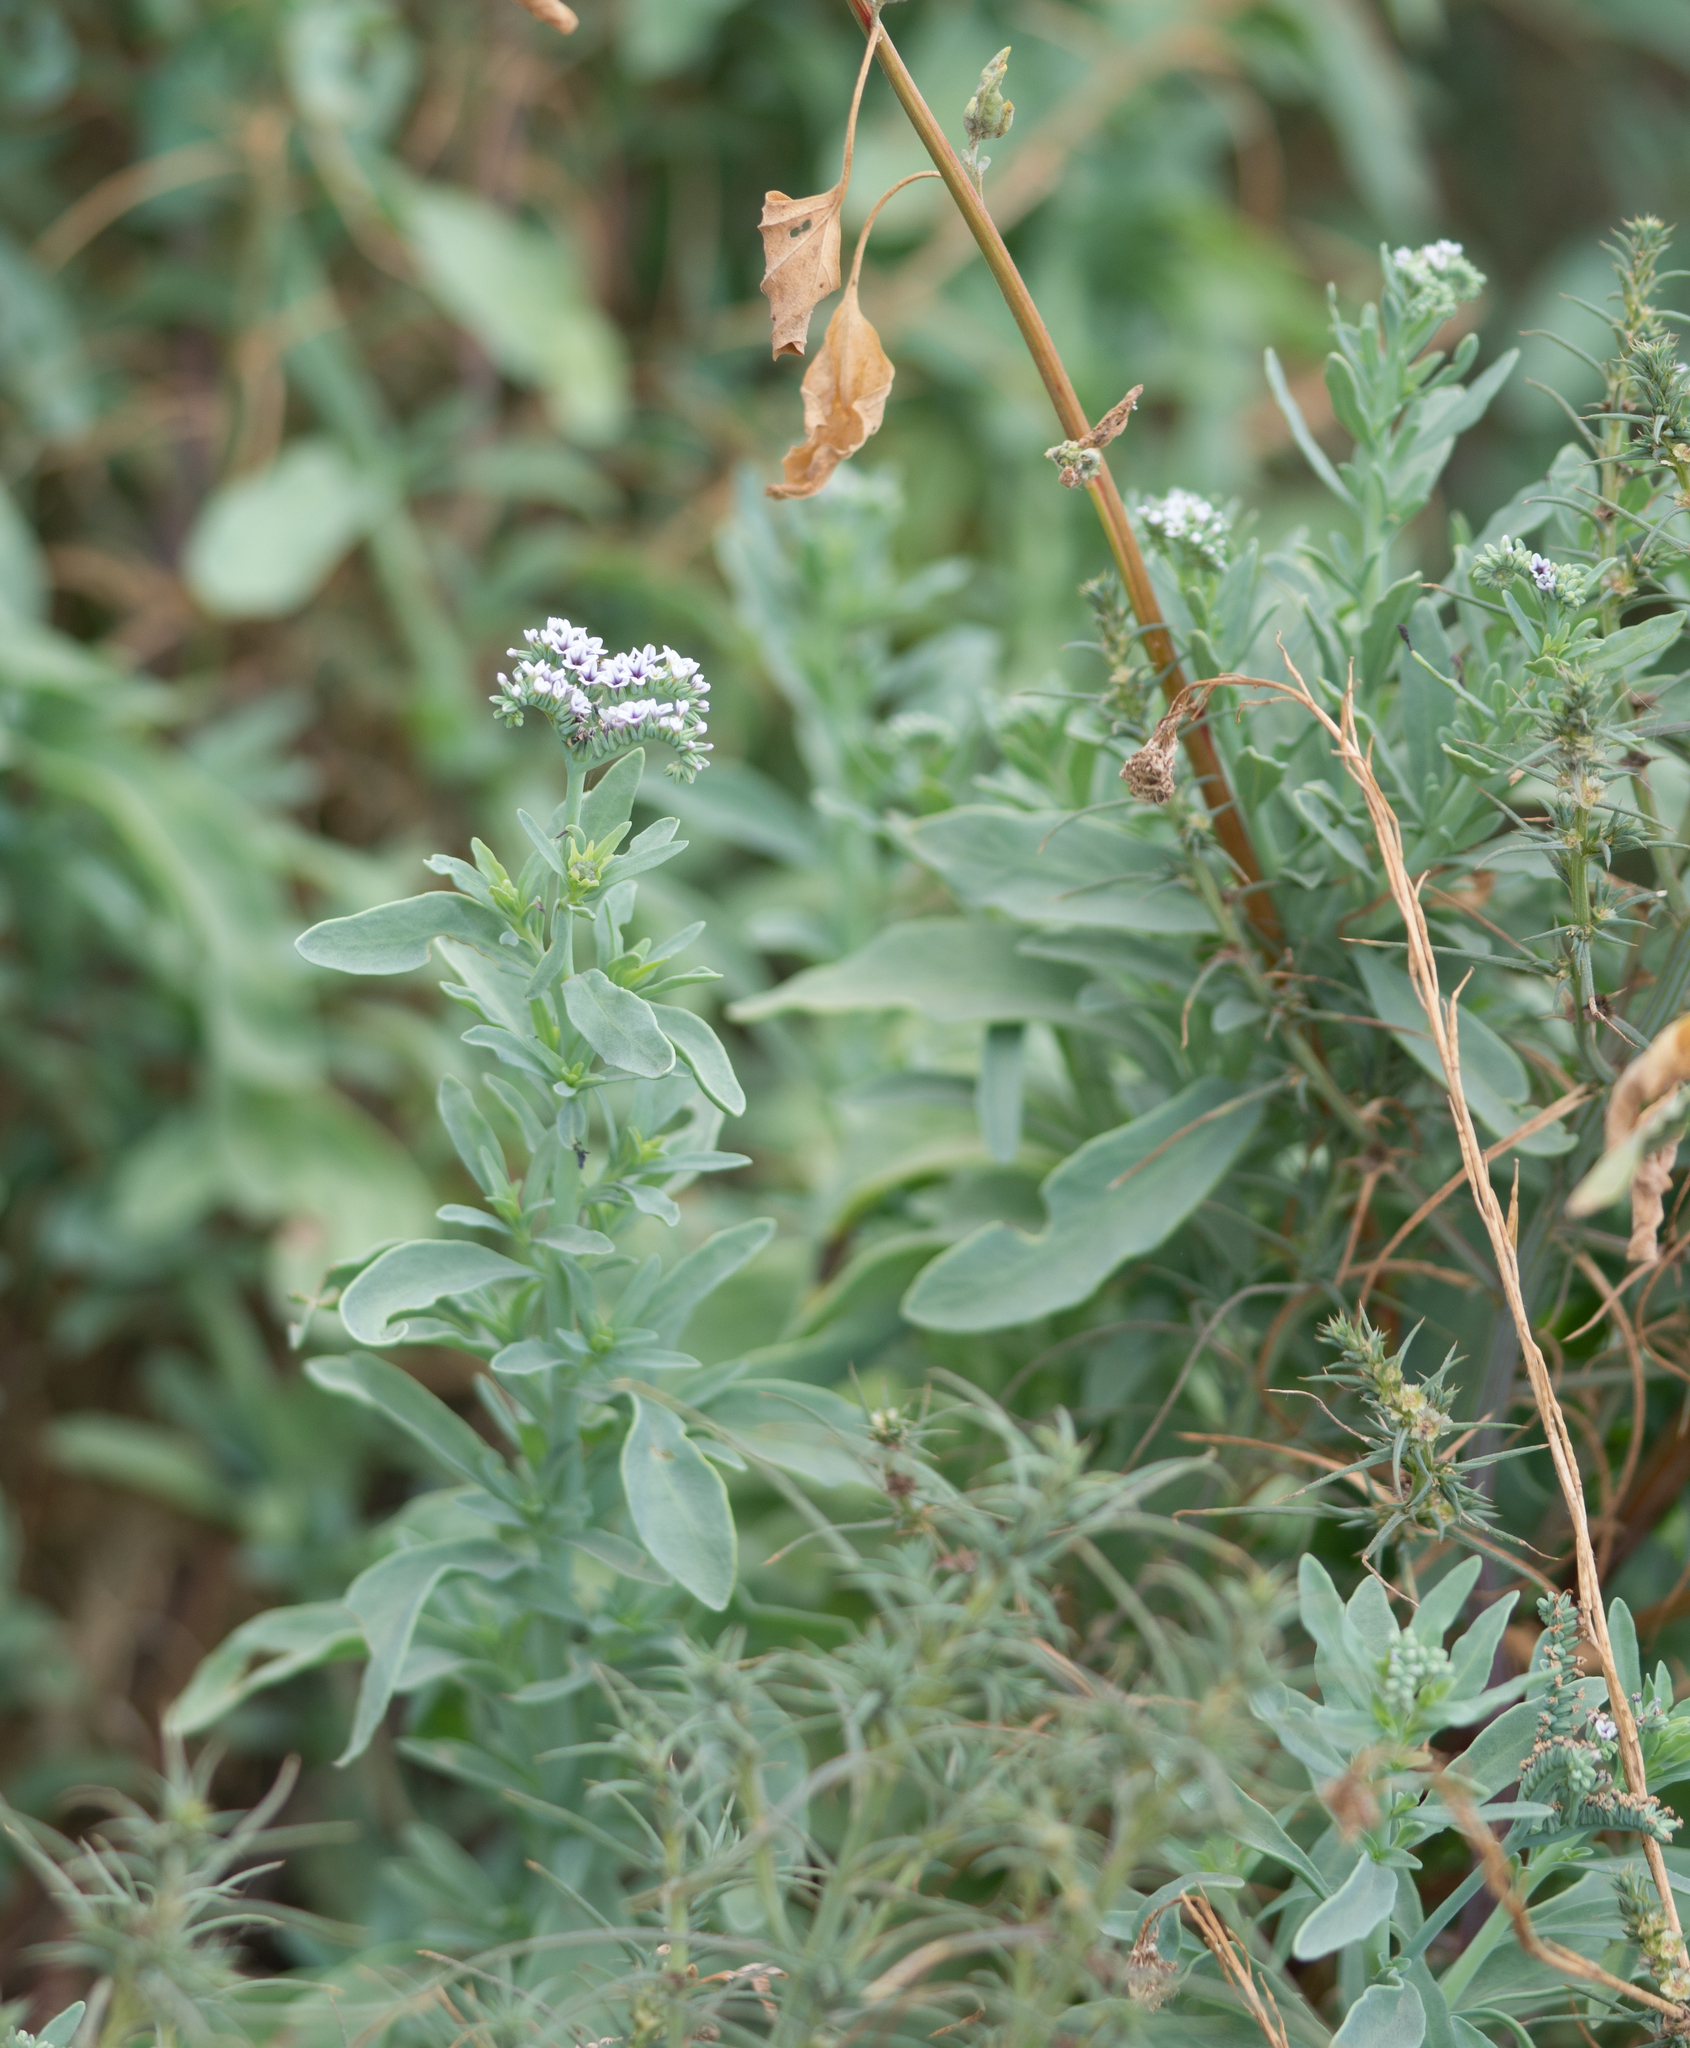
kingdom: Plantae
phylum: Tracheophyta
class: Magnoliopsida
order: Boraginales
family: Heliotropiaceae
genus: Heliotropium
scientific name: Heliotropium curassavicum
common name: Seaside heliotrope
